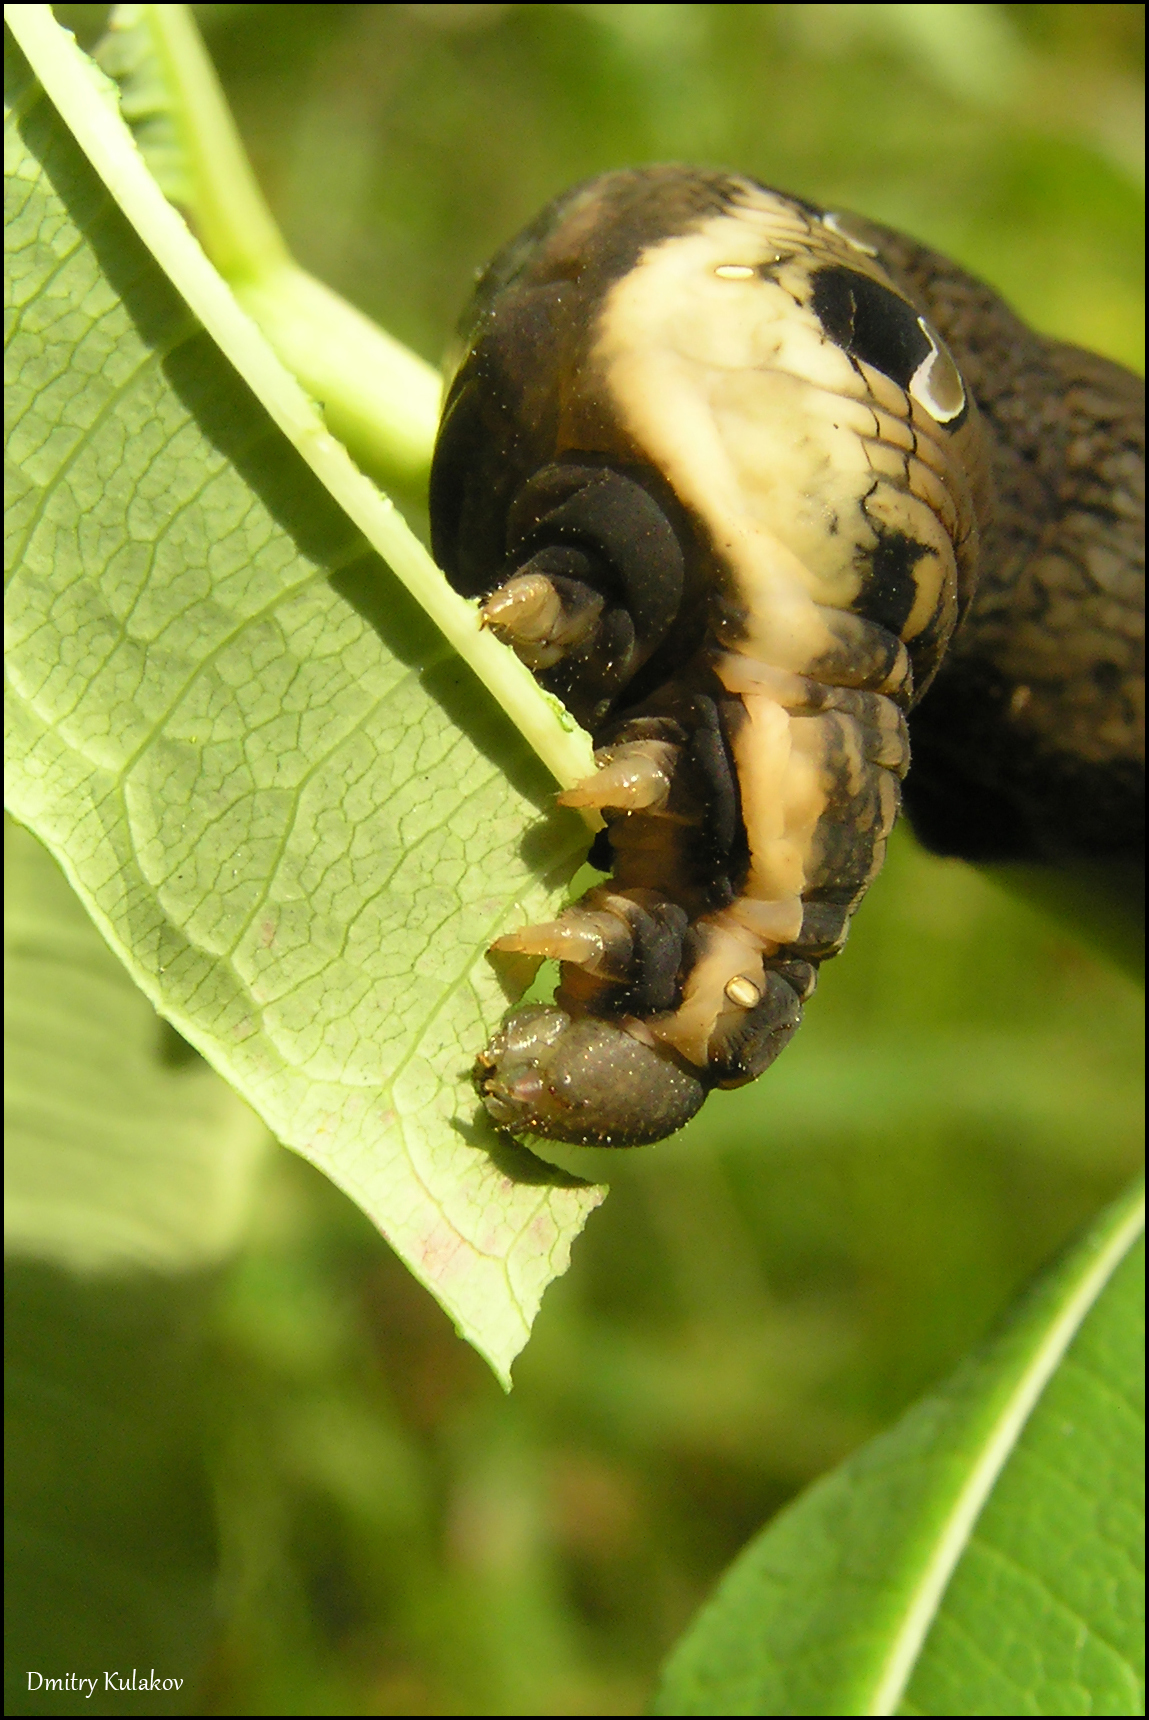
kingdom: Animalia
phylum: Arthropoda
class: Insecta
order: Lepidoptera
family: Sphingidae
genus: Deilephila
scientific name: Deilephila elpenor
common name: Elephant hawk-moth
